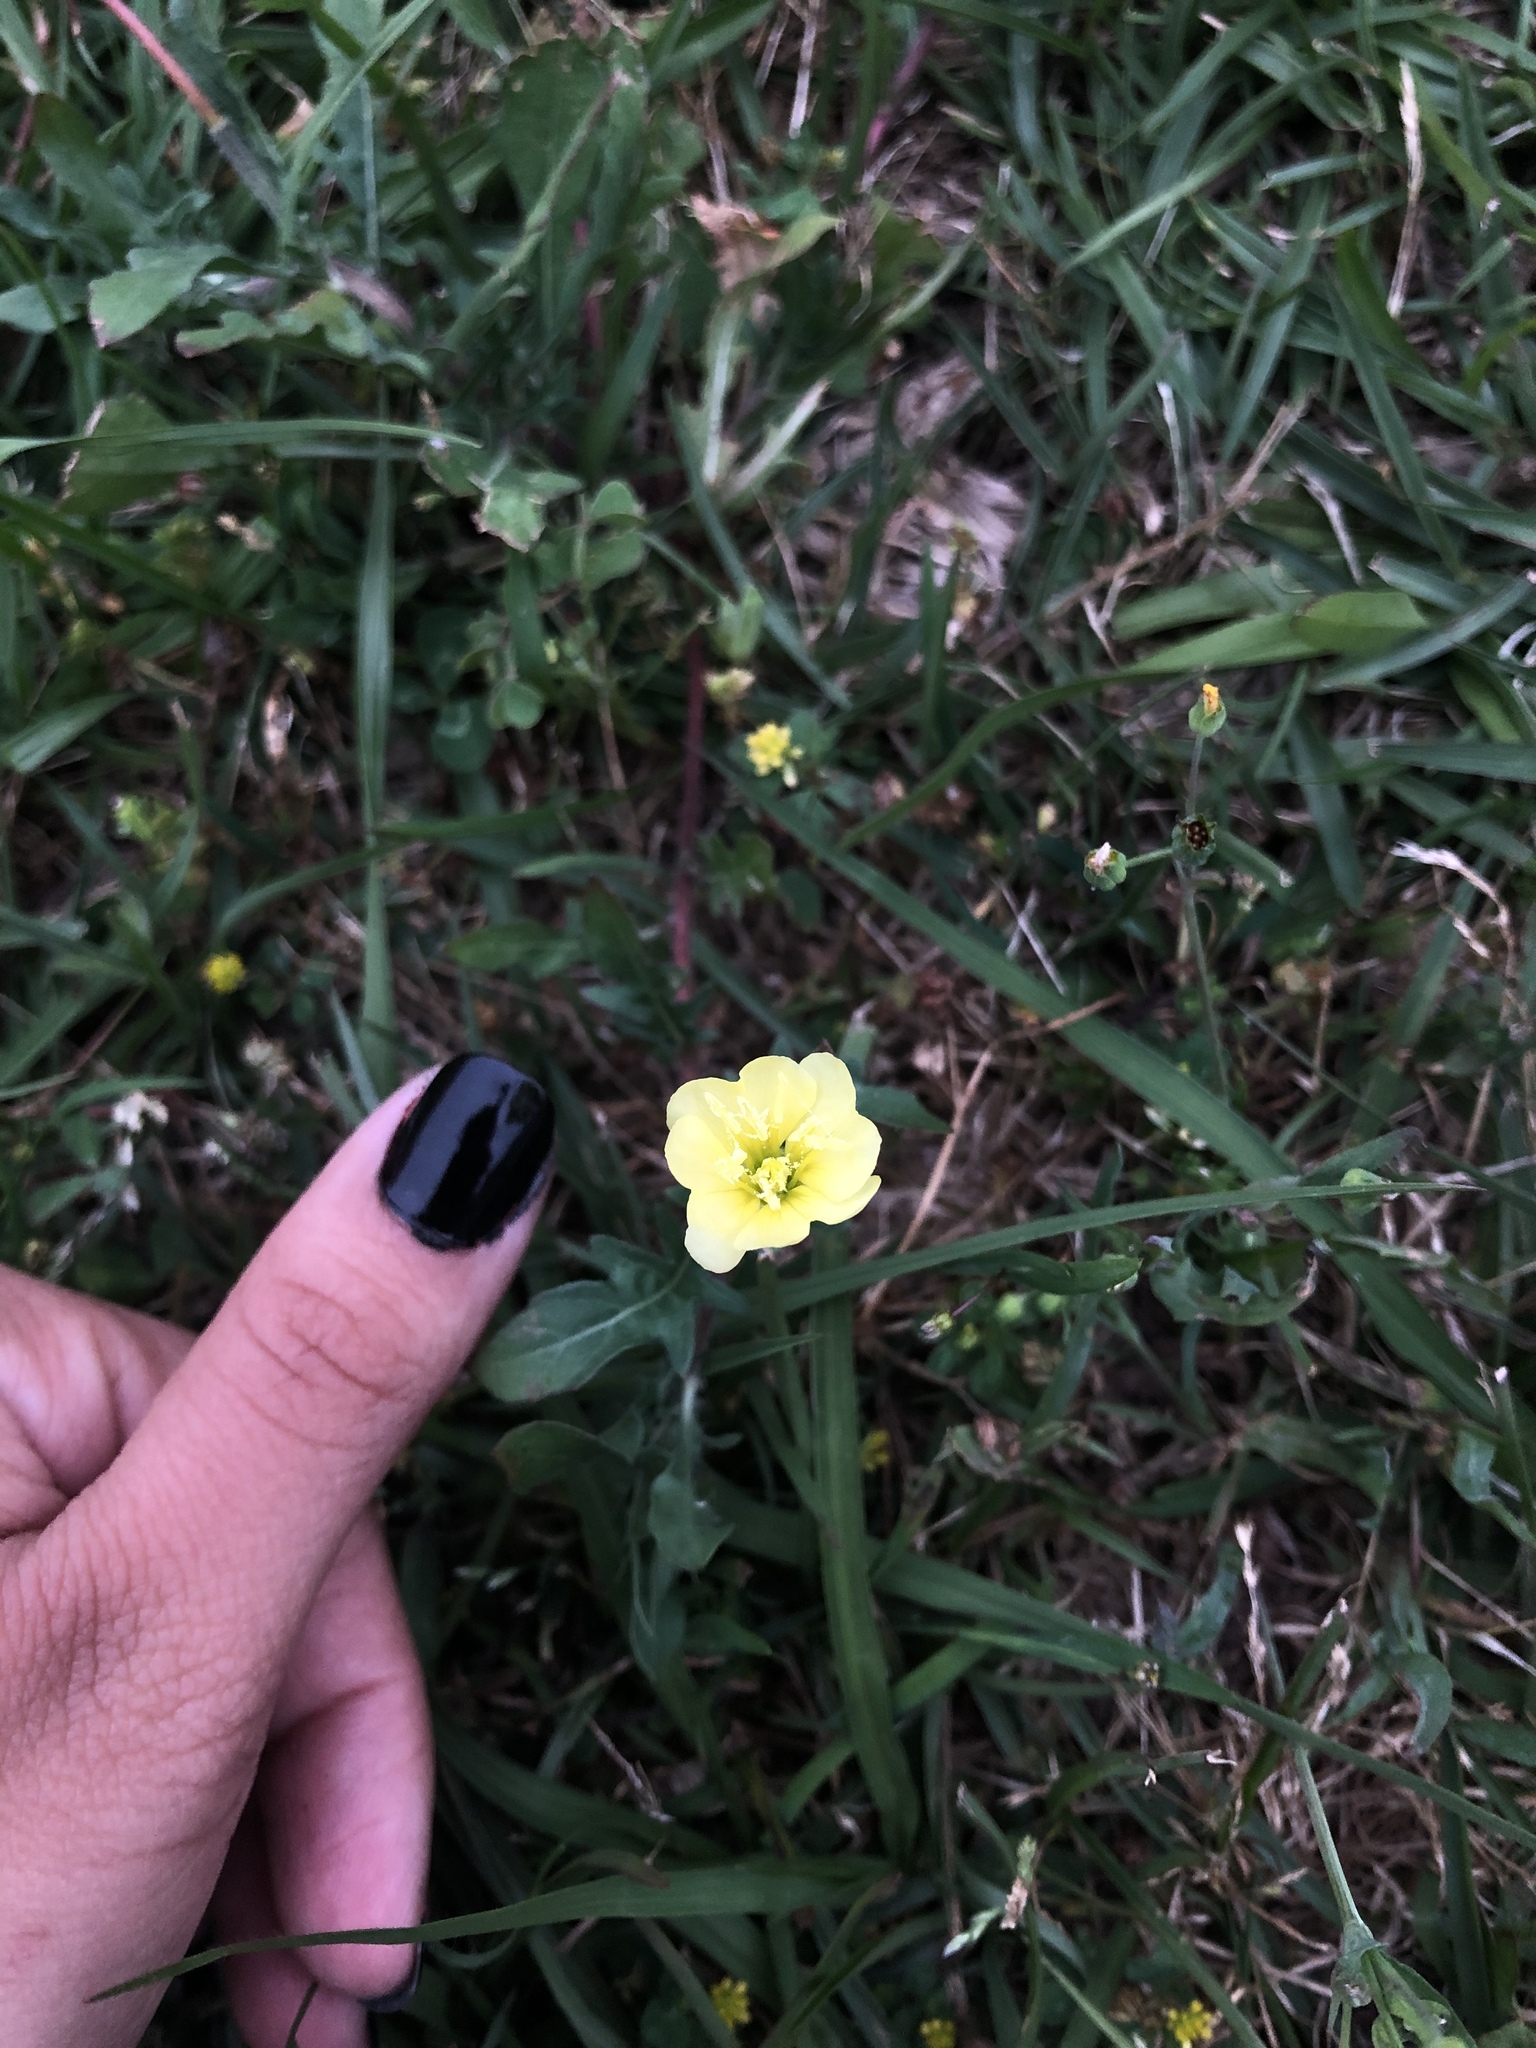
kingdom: Plantae
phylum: Tracheophyta
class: Magnoliopsida
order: Myrtales
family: Onagraceae
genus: Oenothera
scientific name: Oenothera laciniata
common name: Cut-leaved evening-primrose
